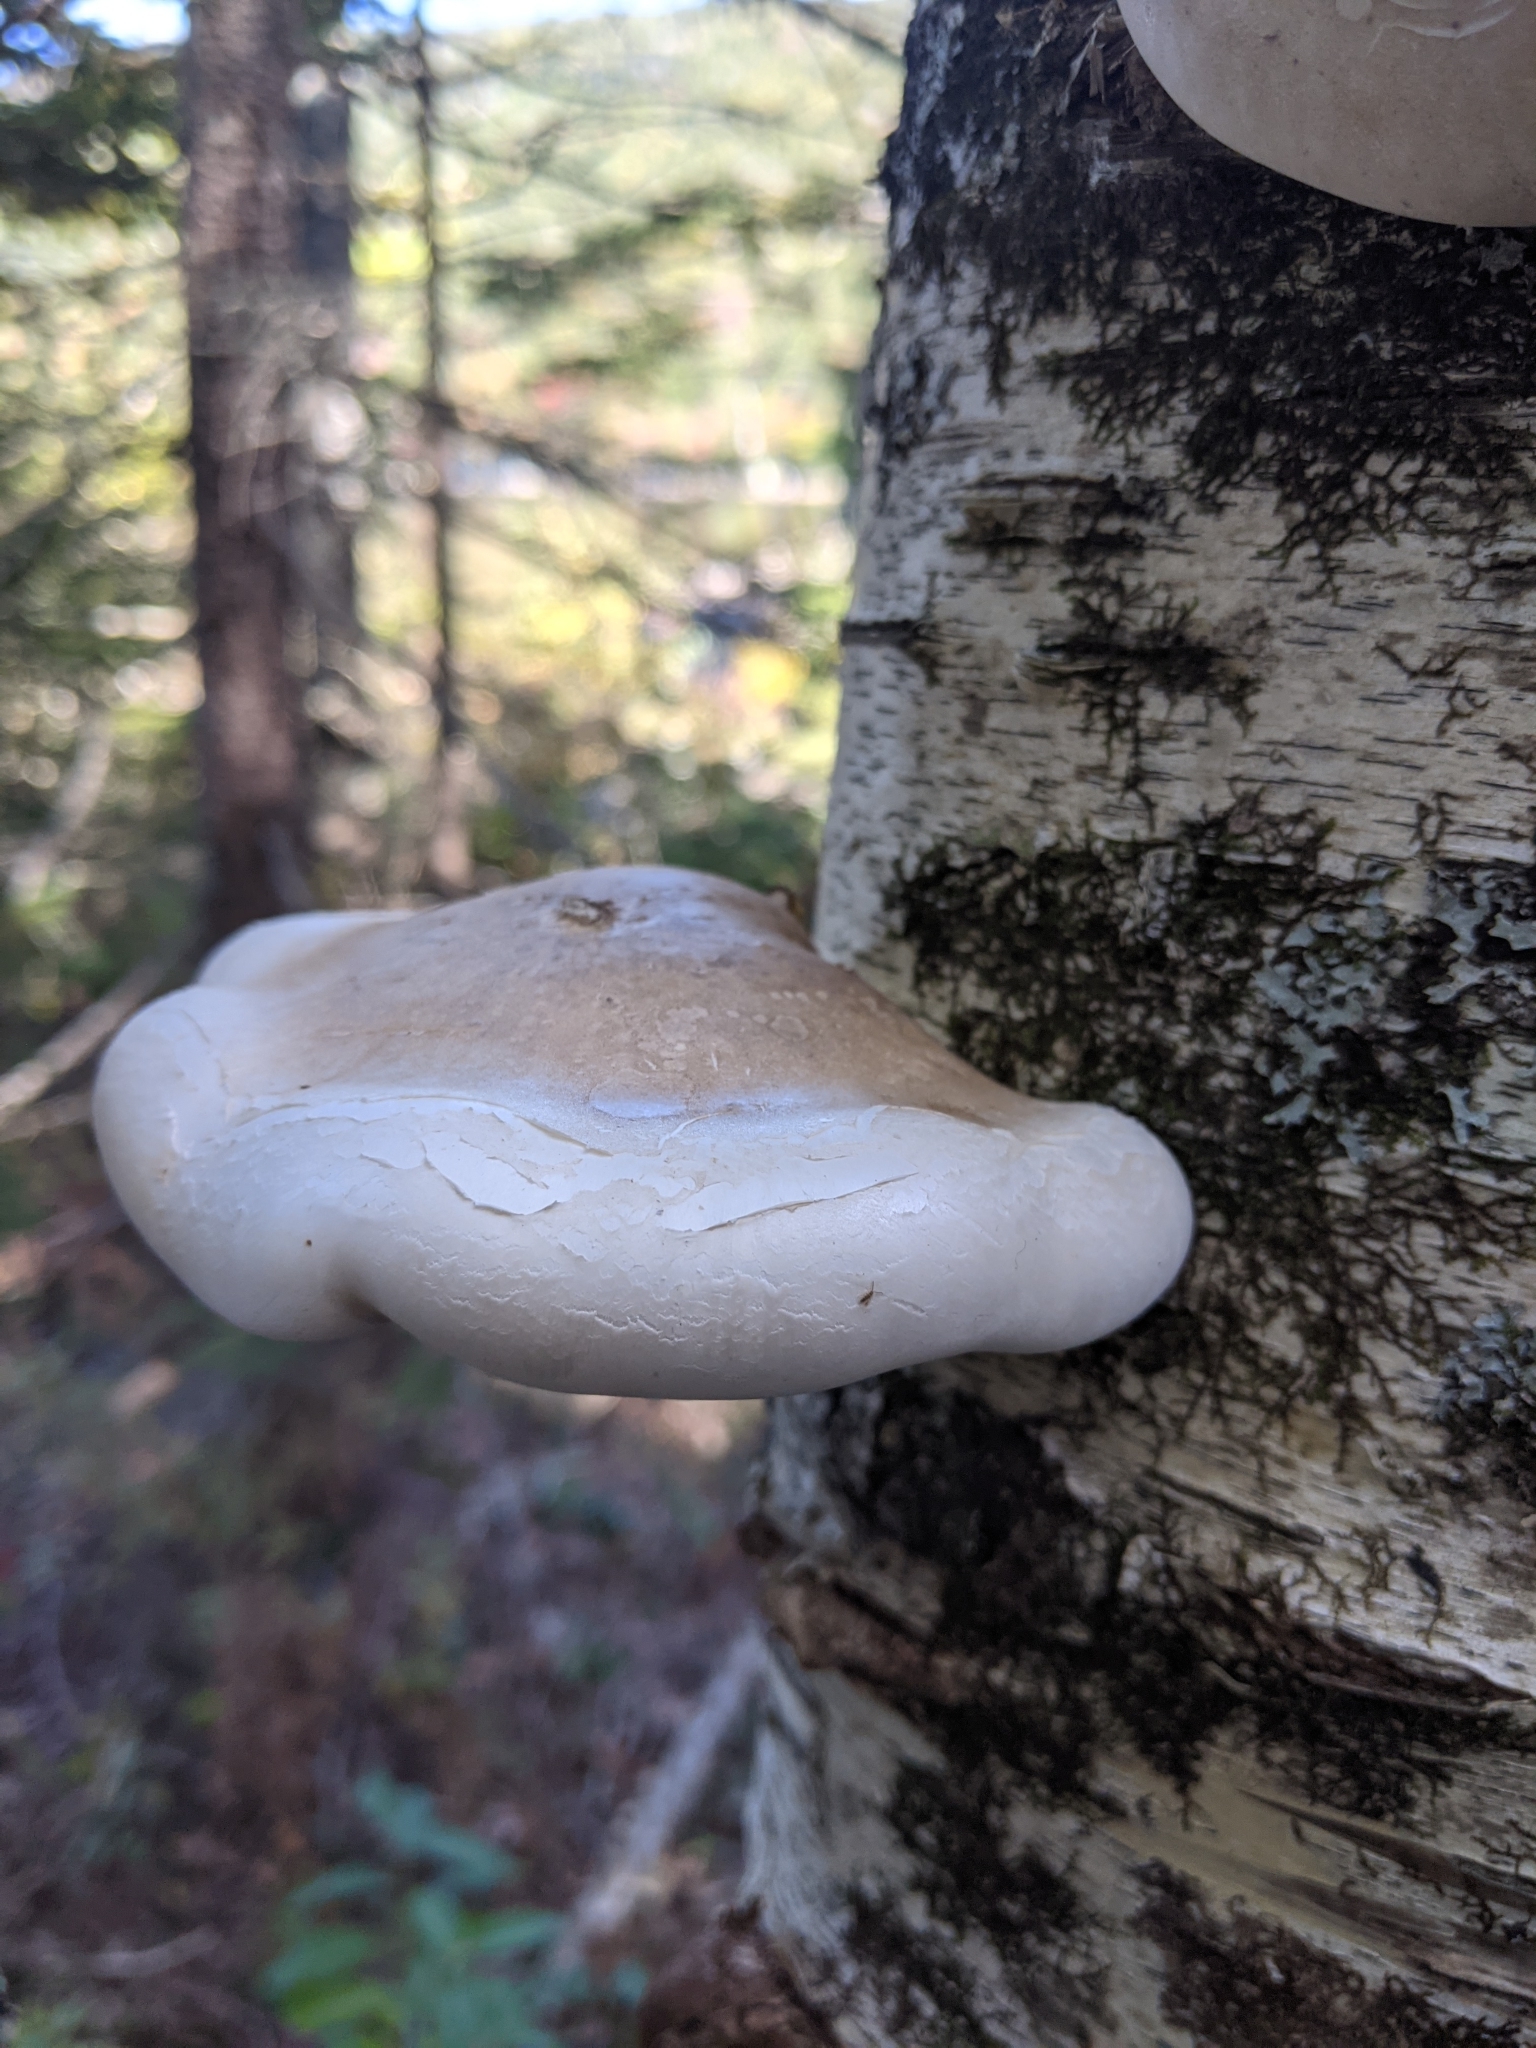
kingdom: Fungi
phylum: Basidiomycota
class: Agaricomycetes
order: Polyporales
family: Fomitopsidaceae
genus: Fomitopsis
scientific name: Fomitopsis betulina
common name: Birch polypore
